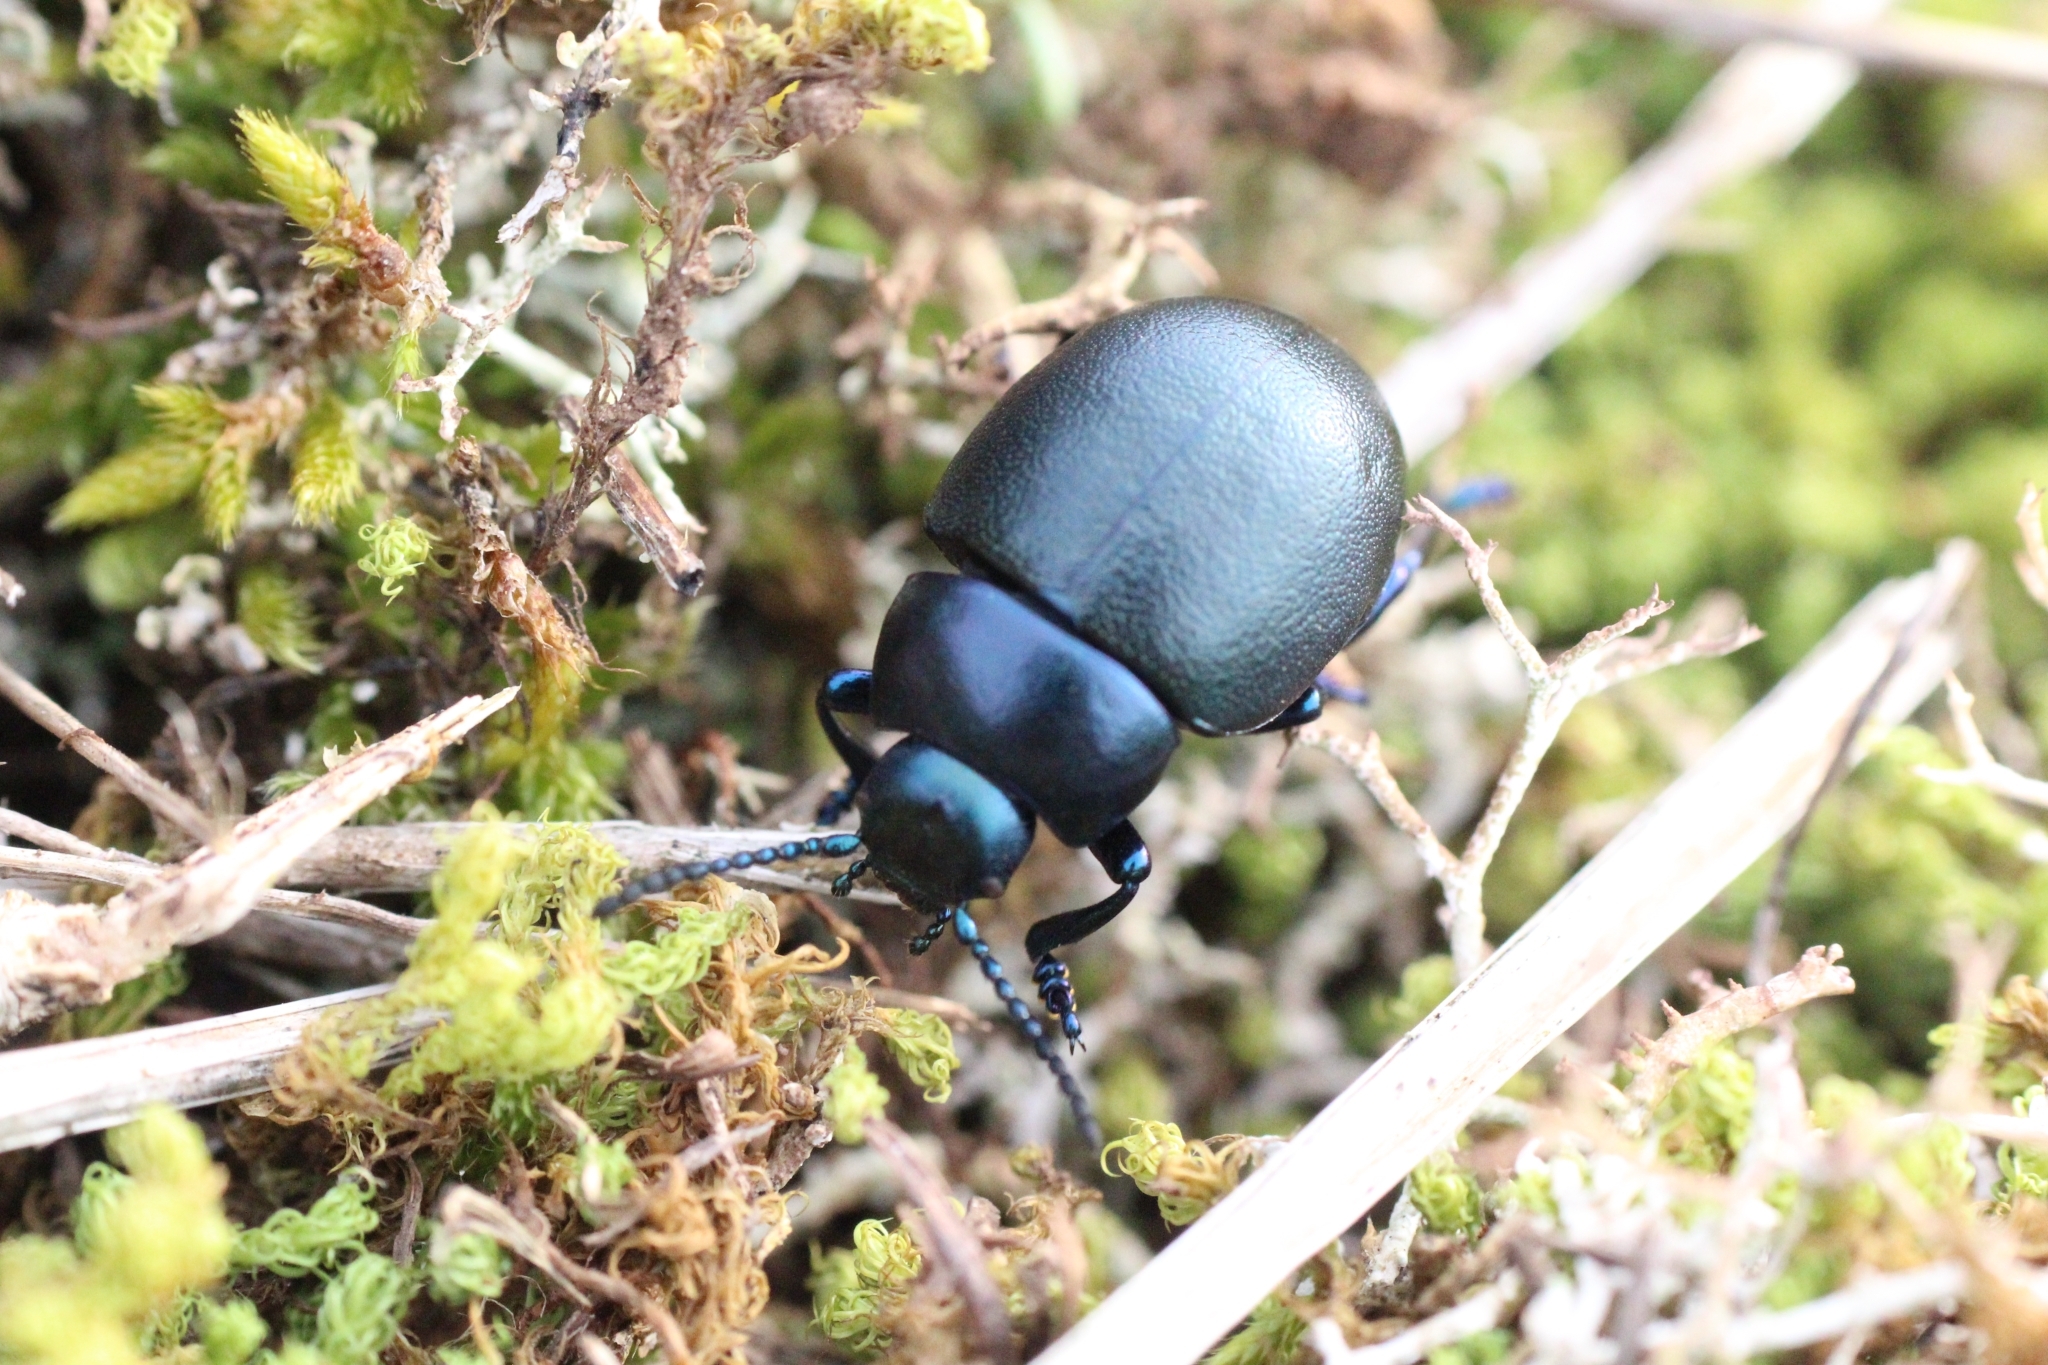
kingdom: Animalia
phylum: Arthropoda
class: Insecta
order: Coleoptera
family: Chrysomelidae
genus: Timarcha
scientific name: Timarcha goettingensis
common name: Small bloody-nosed beetle
